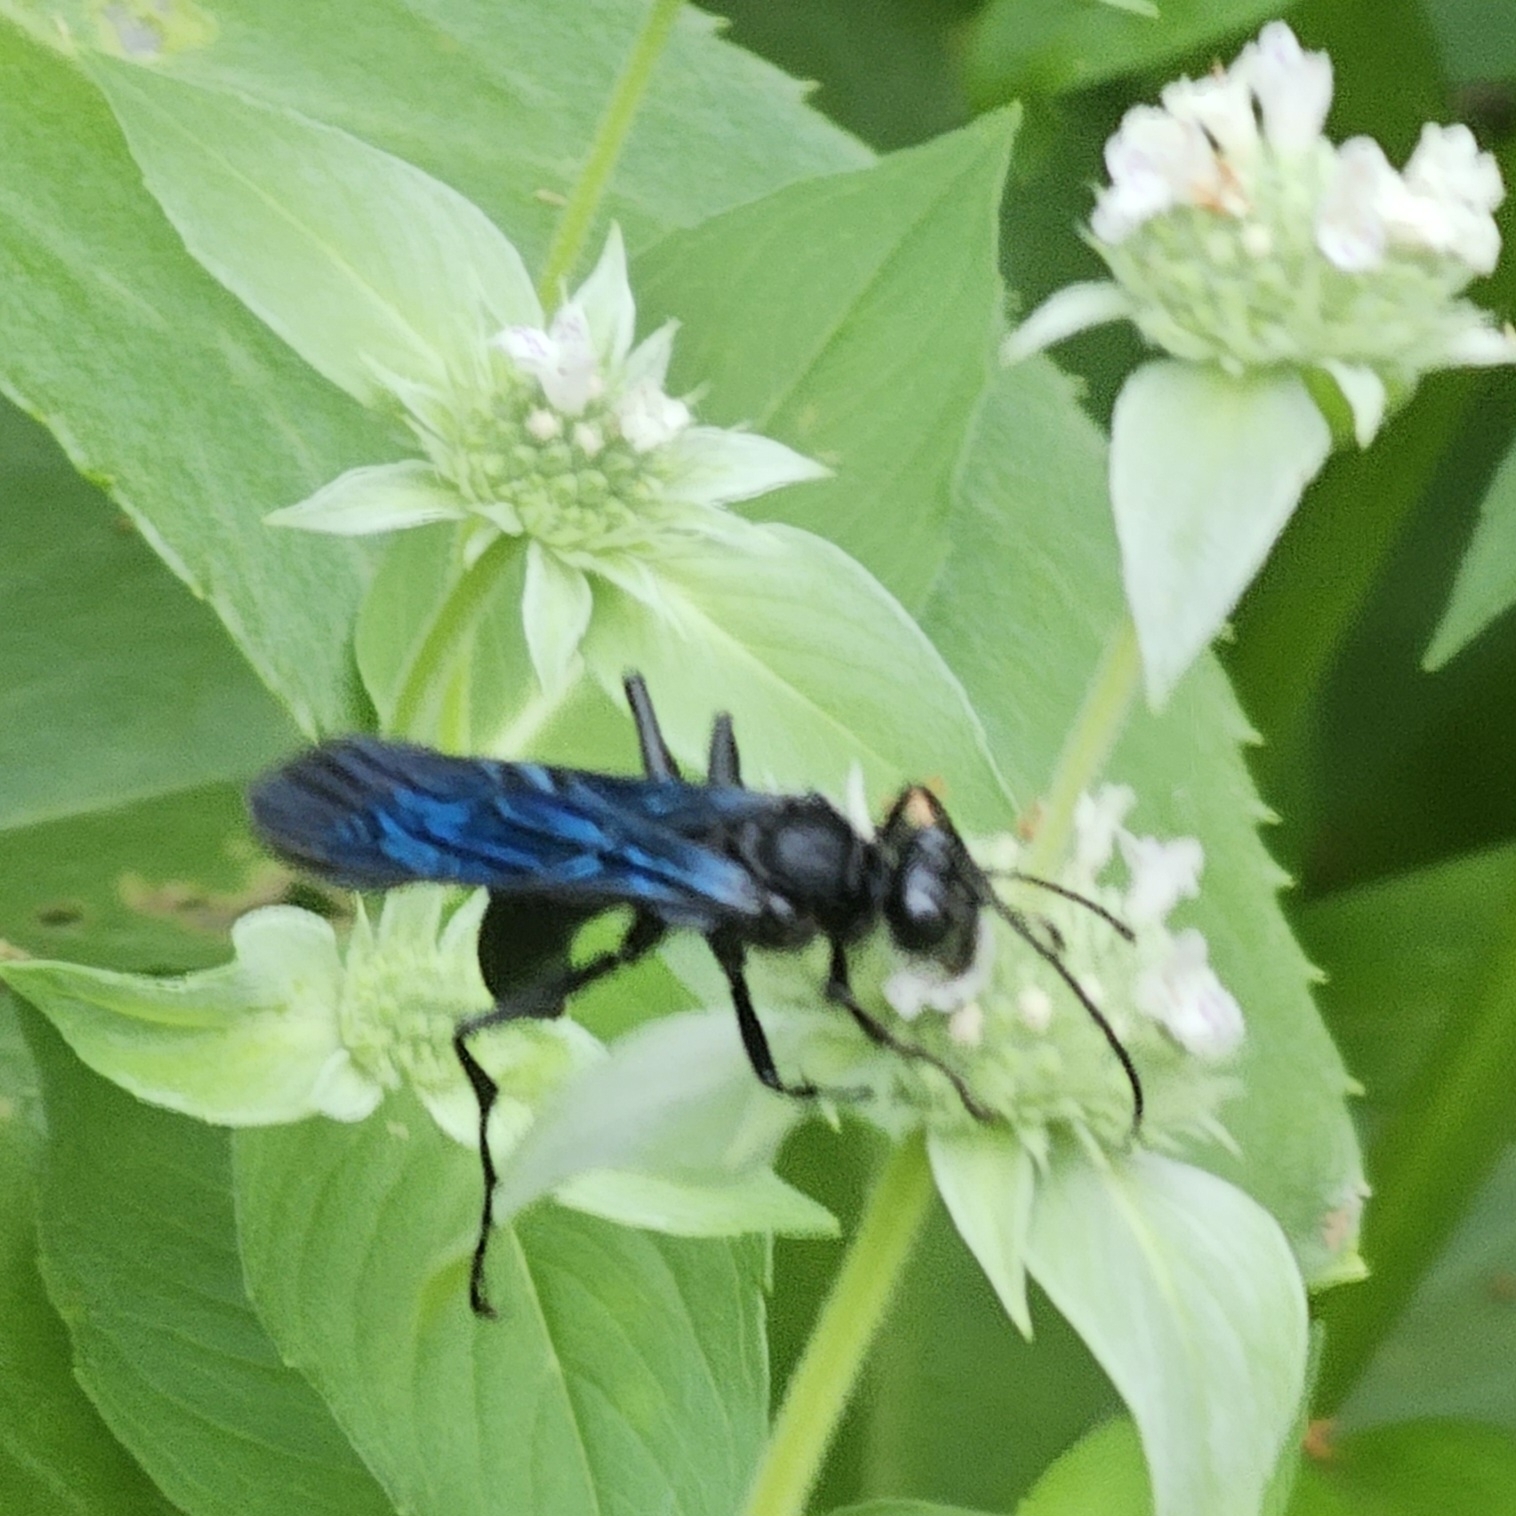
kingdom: Animalia
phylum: Arthropoda
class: Insecta
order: Hymenoptera
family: Sphecidae
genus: Sphex
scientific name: Sphex pensylvanicus
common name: Great black digger wasp
